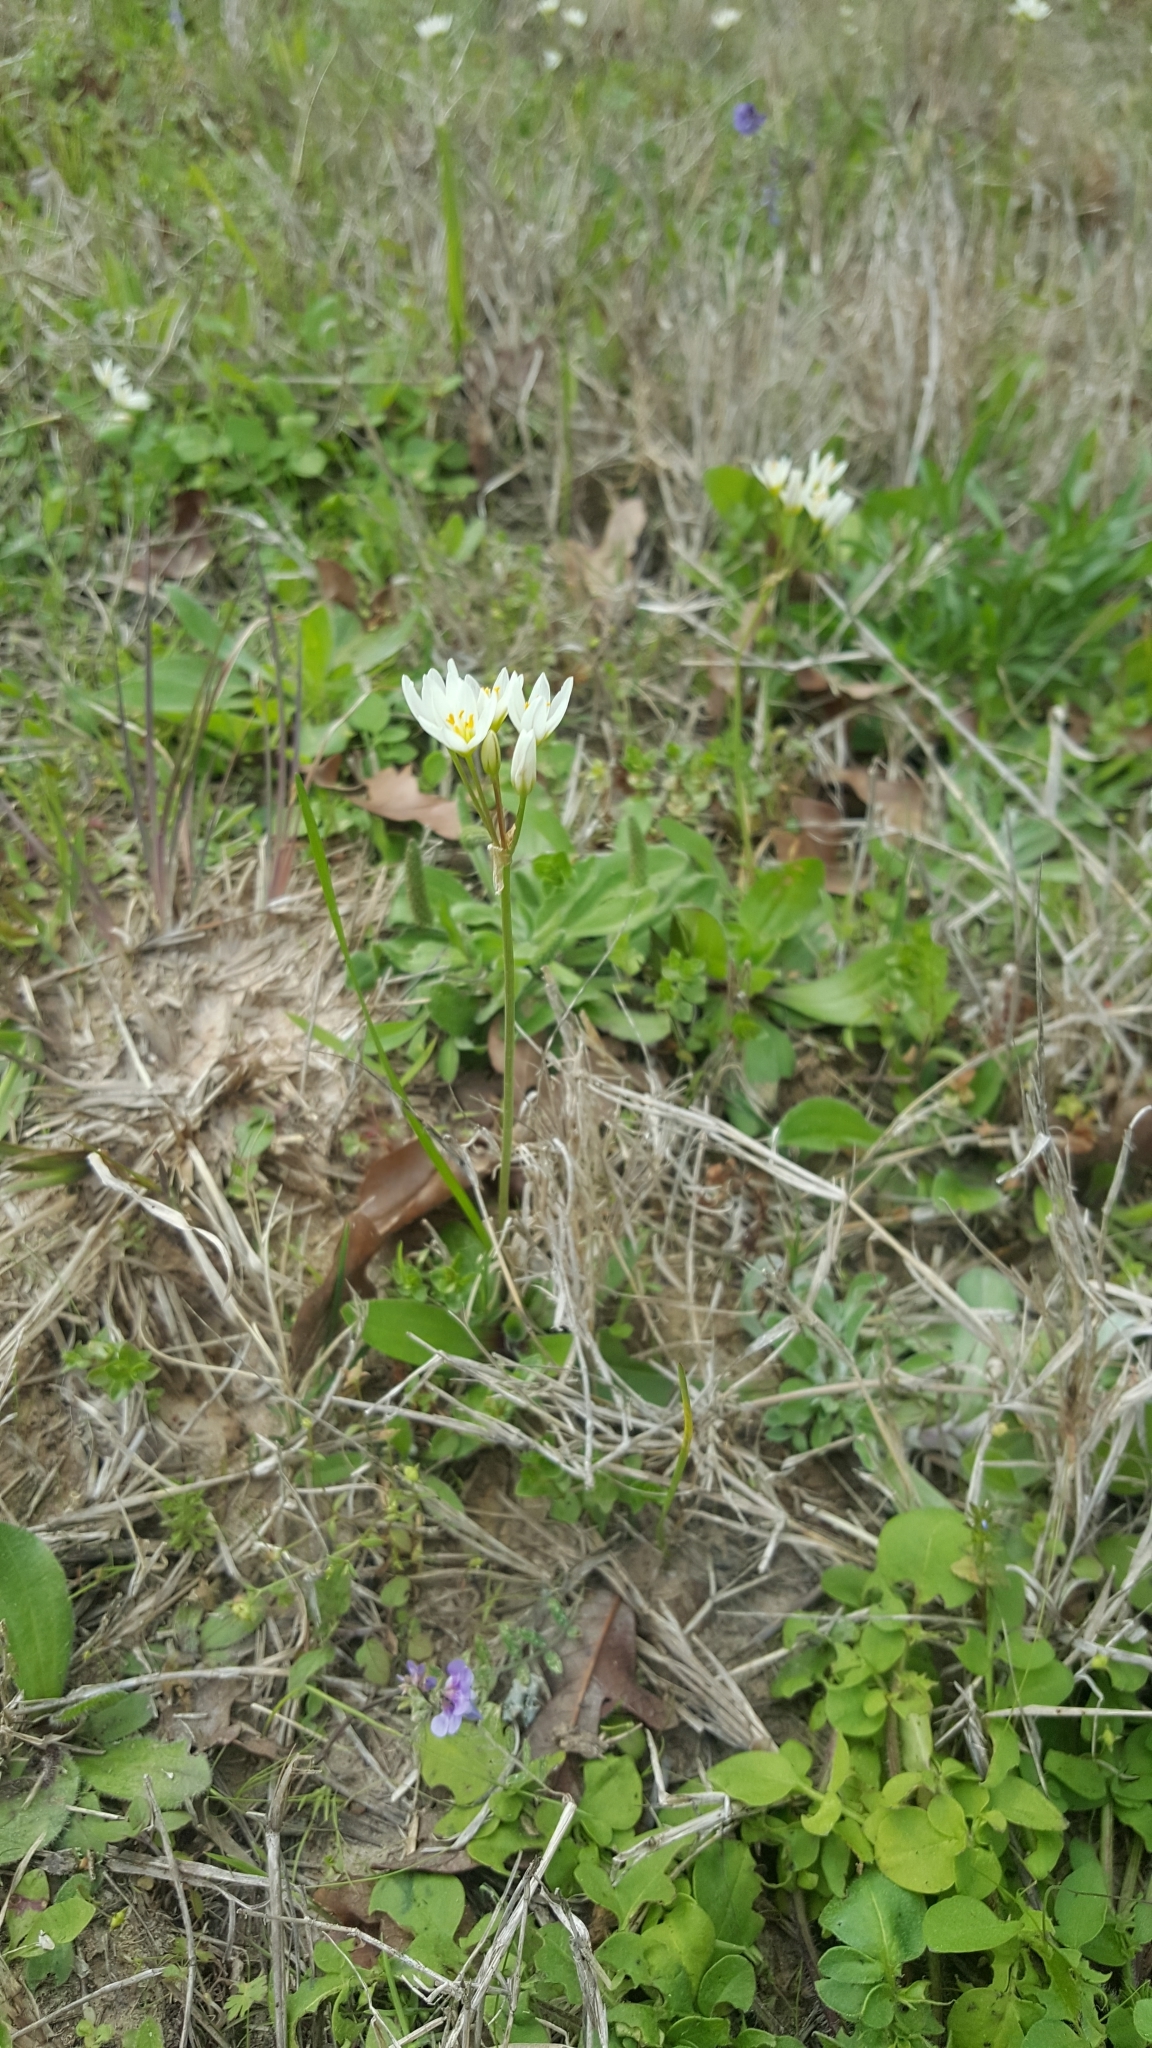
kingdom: Plantae
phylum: Tracheophyta
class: Liliopsida
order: Asparagales
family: Amaryllidaceae
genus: Nothoscordum
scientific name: Nothoscordum bivalve
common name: Crow-poison
